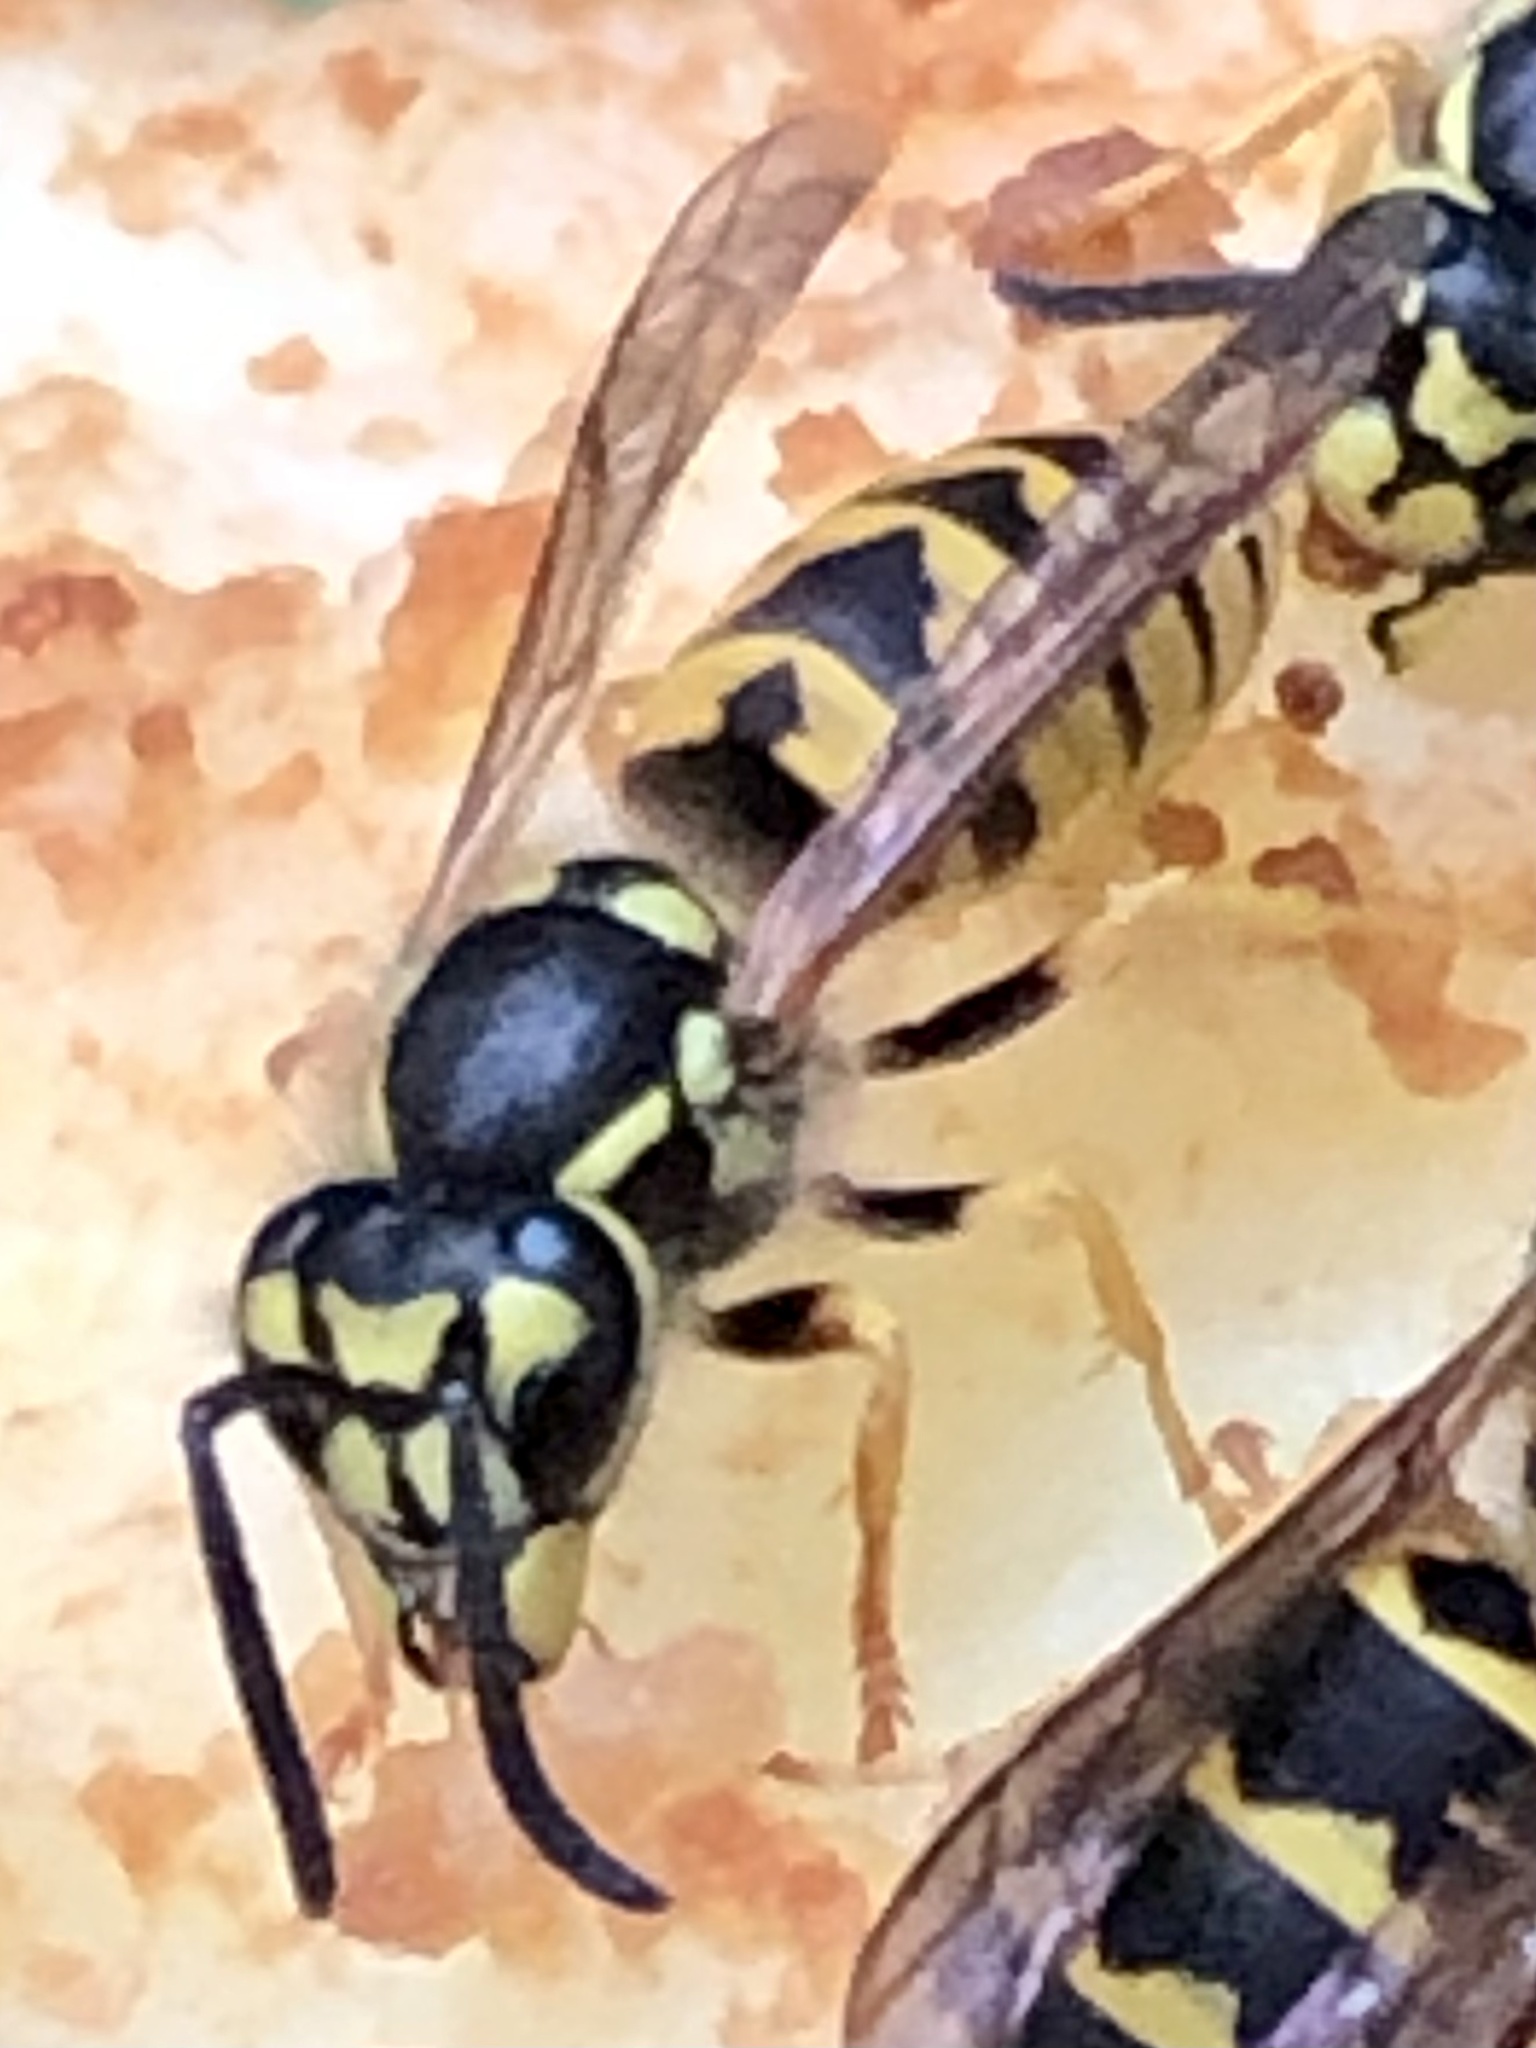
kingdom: Animalia
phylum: Arthropoda
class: Insecta
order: Hymenoptera
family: Vespidae
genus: Vespula
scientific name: Vespula germanica
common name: German wasp
